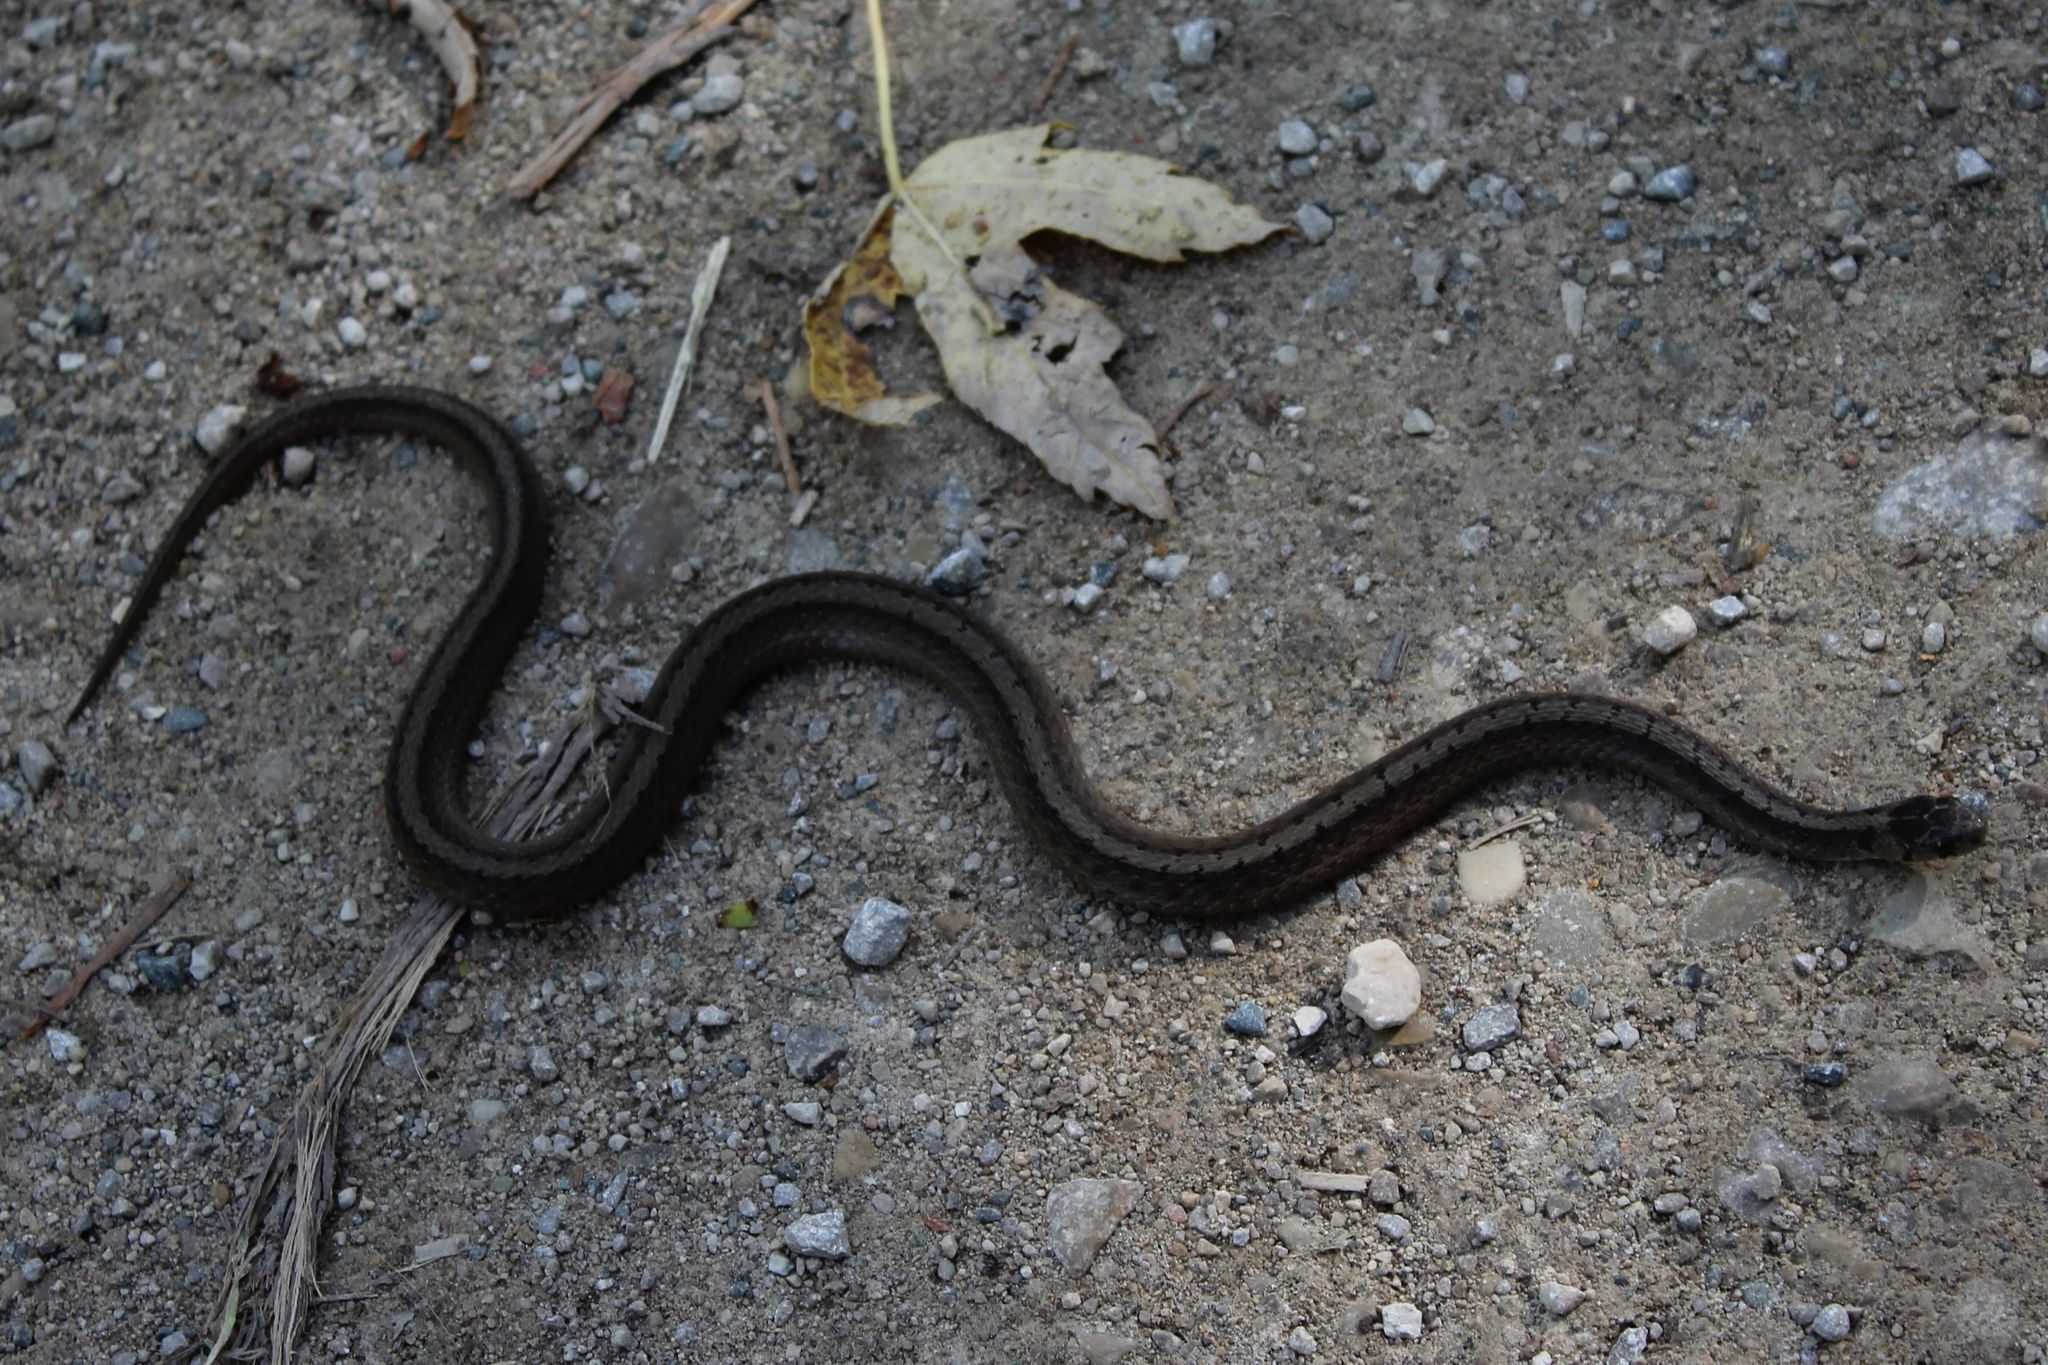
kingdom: Animalia
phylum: Chordata
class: Squamata
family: Colubridae
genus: Storeria
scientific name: Storeria dekayi
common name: (dekay’s) brown snake
